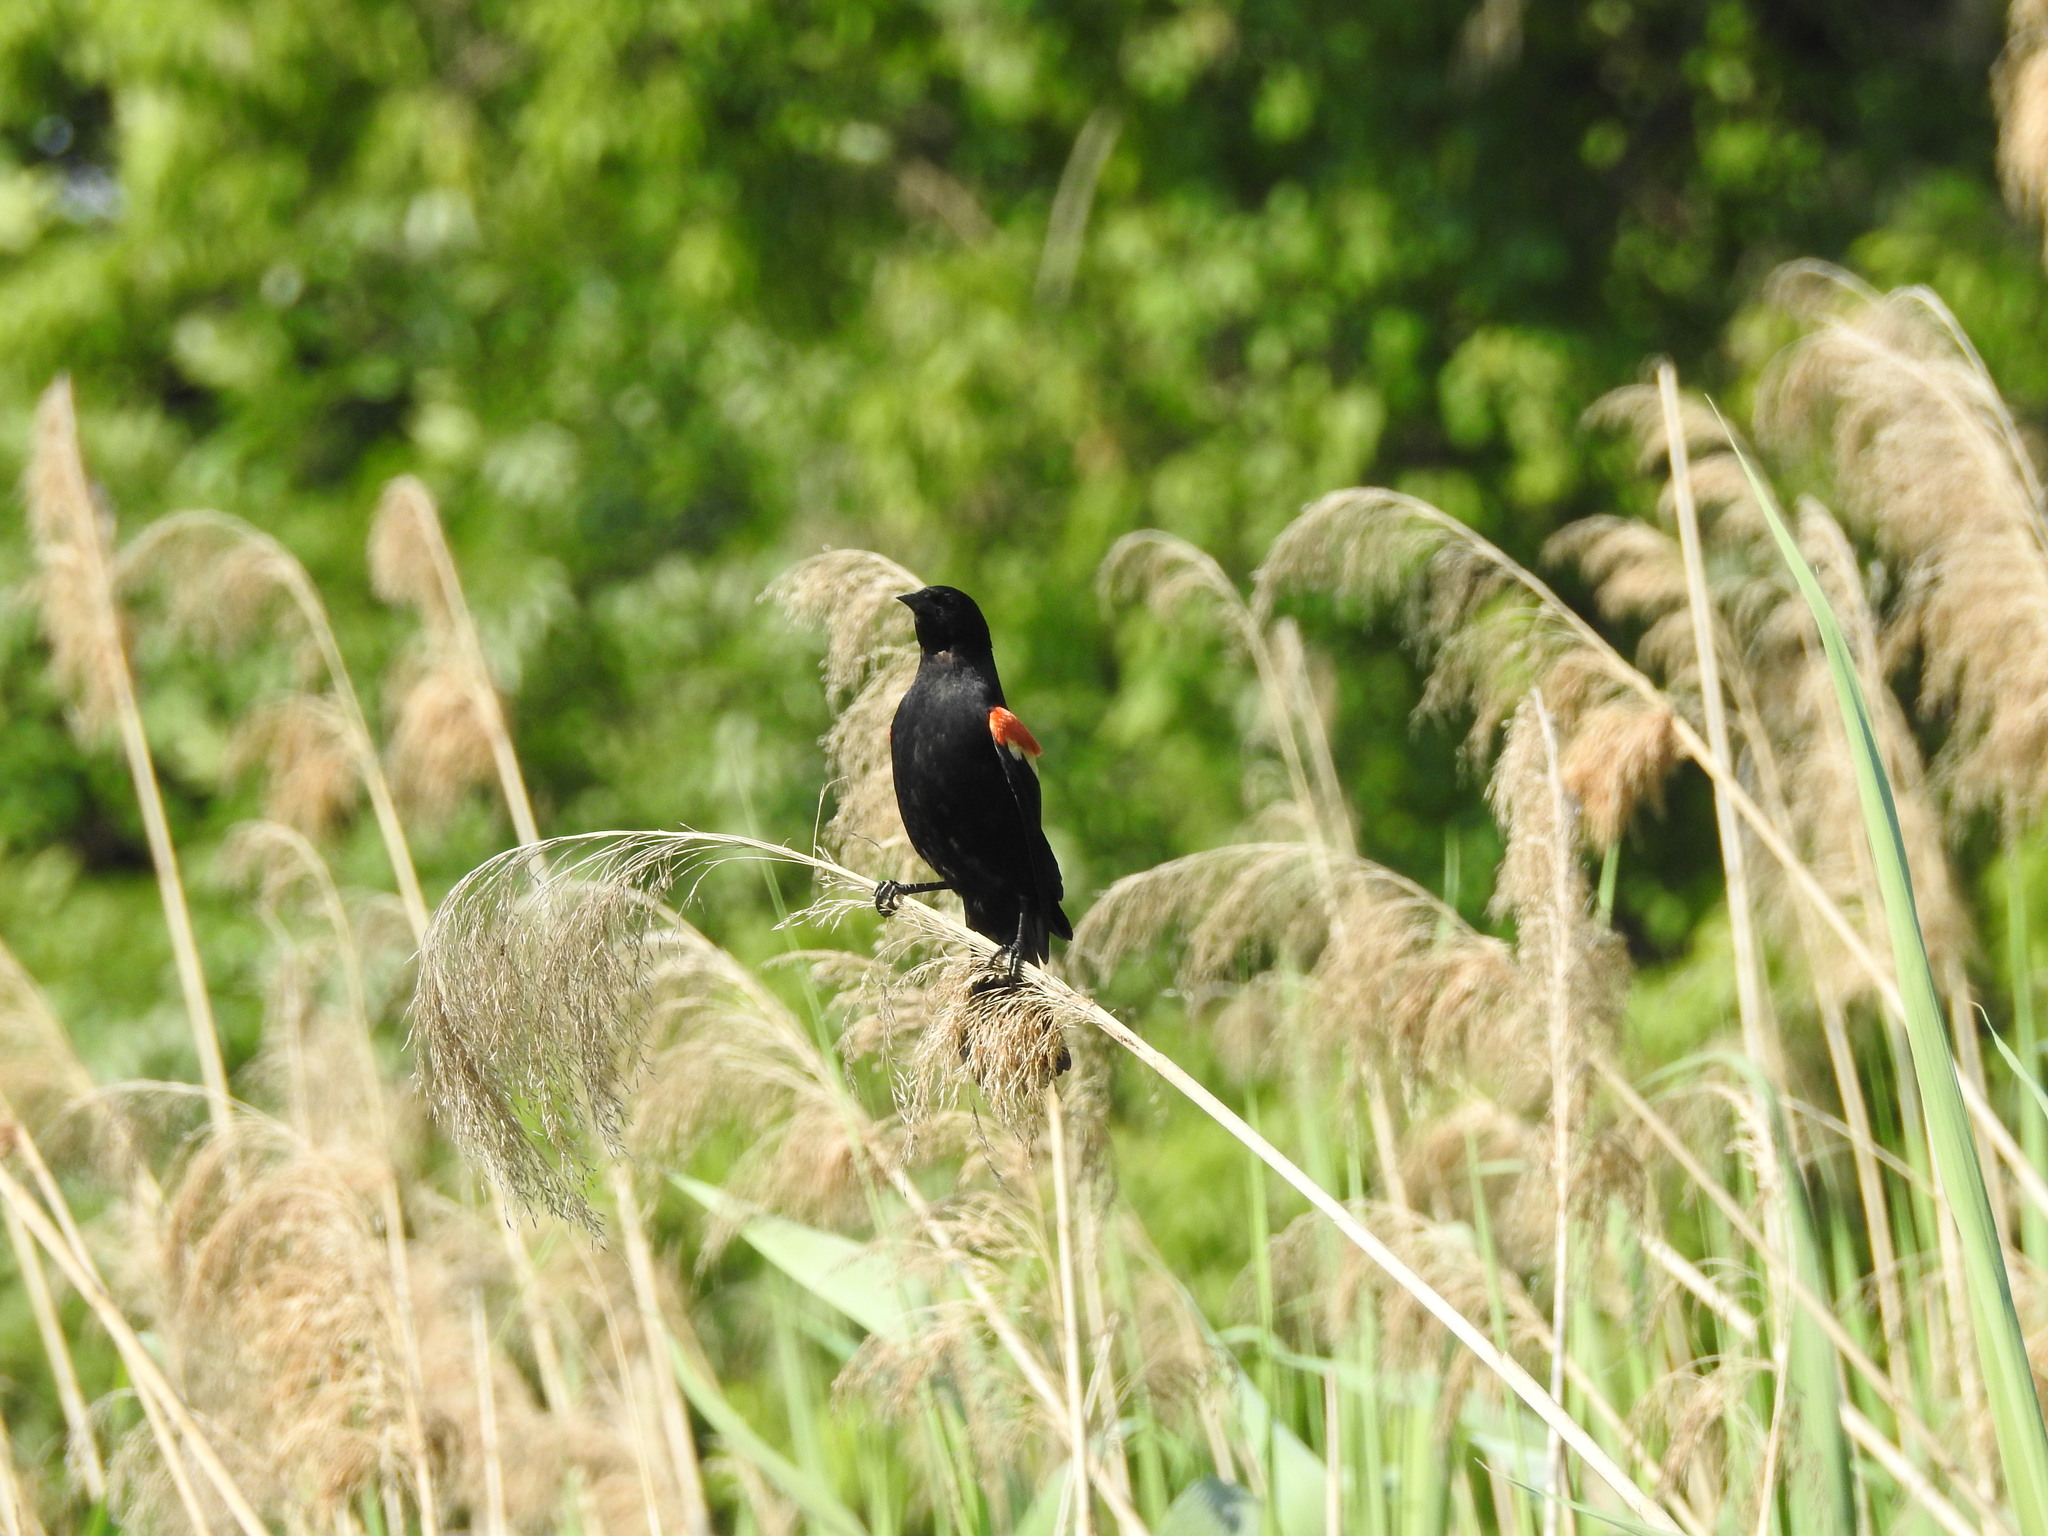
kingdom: Animalia
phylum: Chordata
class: Aves
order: Passeriformes
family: Icteridae
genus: Agelaius
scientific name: Agelaius phoeniceus
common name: Red-winged blackbird
